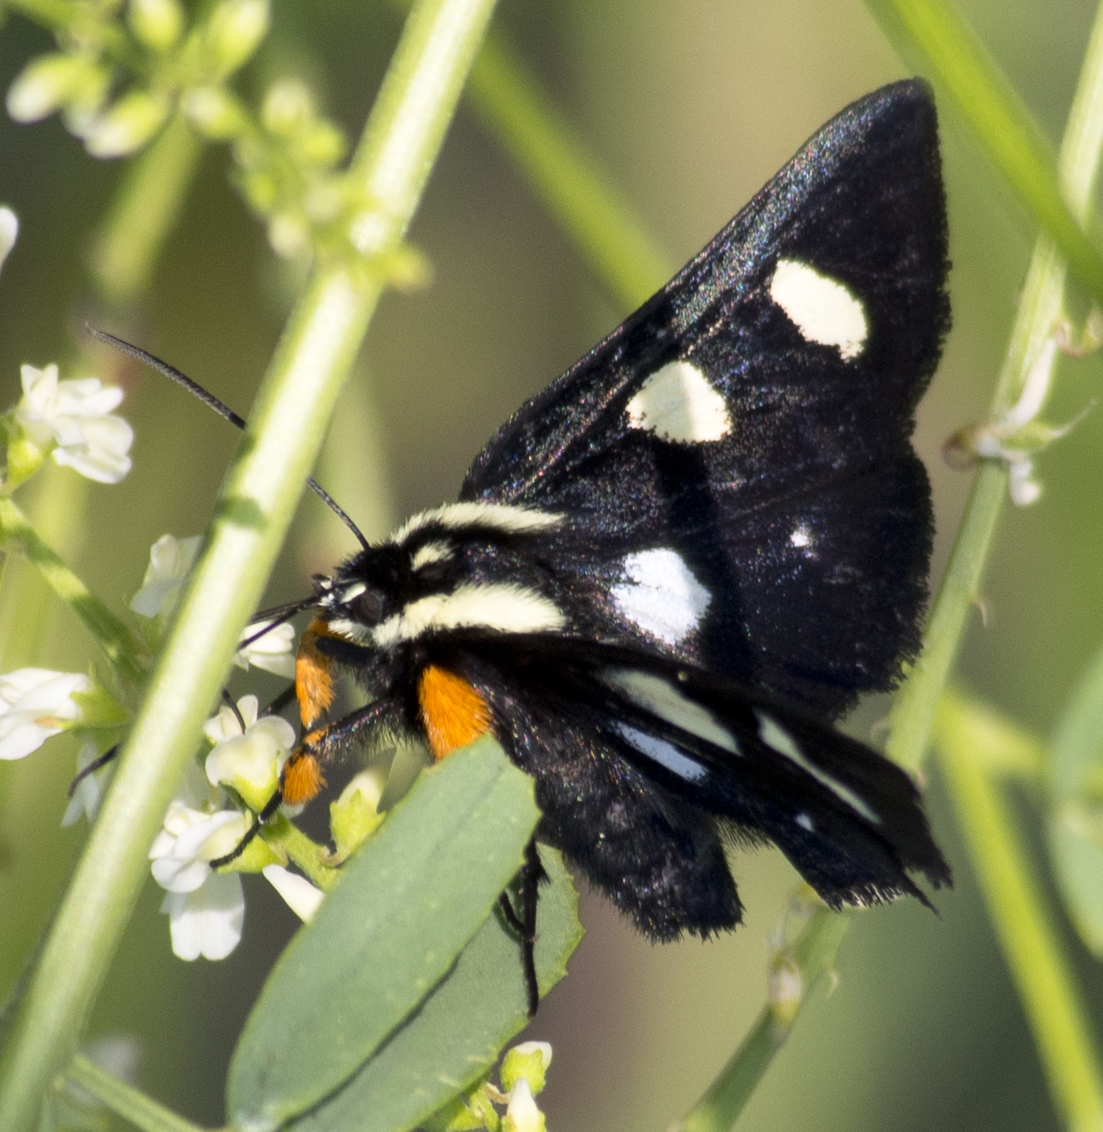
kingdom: Animalia
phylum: Arthropoda
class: Insecta
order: Lepidoptera
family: Noctuidae
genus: Alypia
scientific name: Alypia octomaculata
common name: Eight-spotted forester
